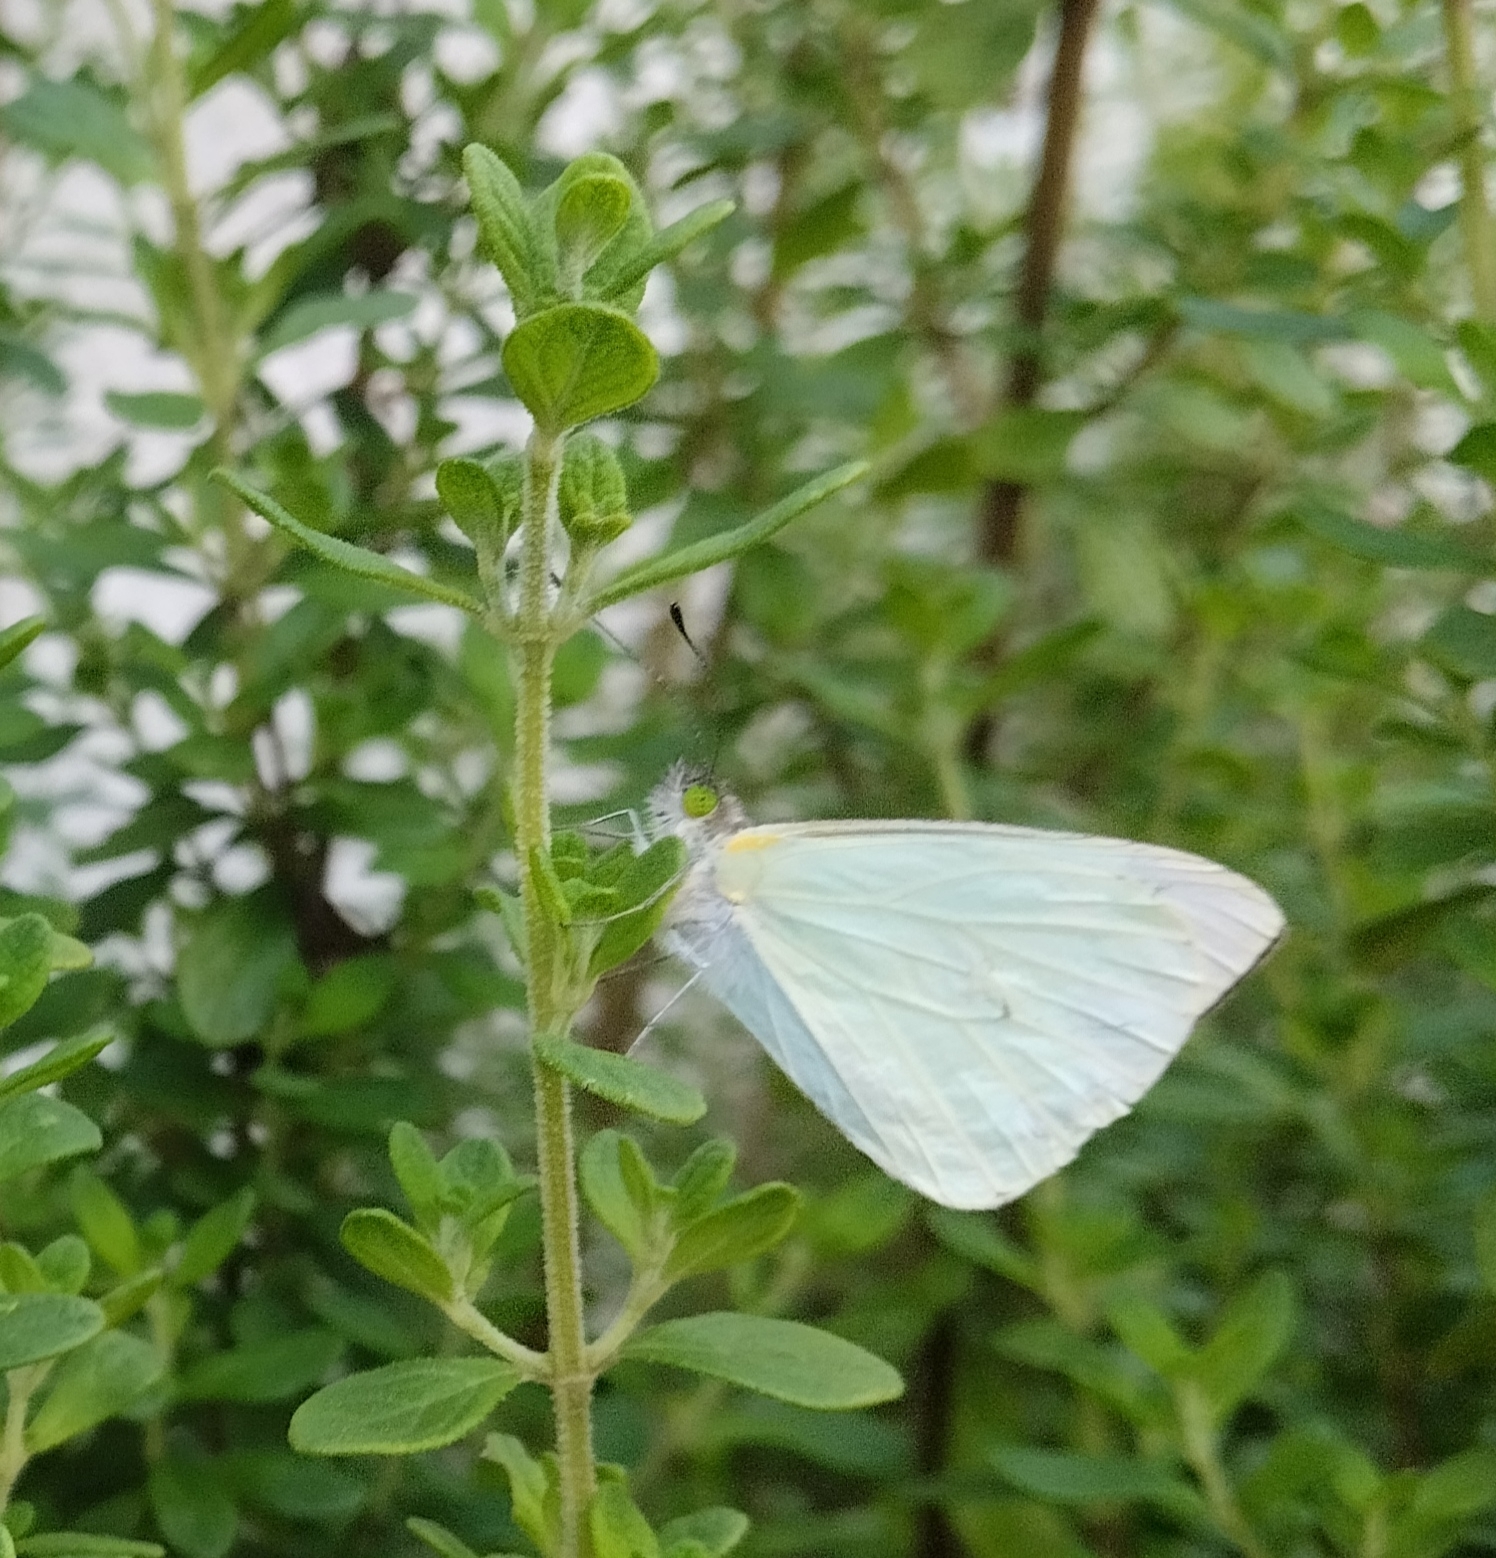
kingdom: Animalia
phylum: Arthropoda
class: Insecta
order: Lepidoptera
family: Pieridae
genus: Leptophobia
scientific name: Leptophobia aripa
